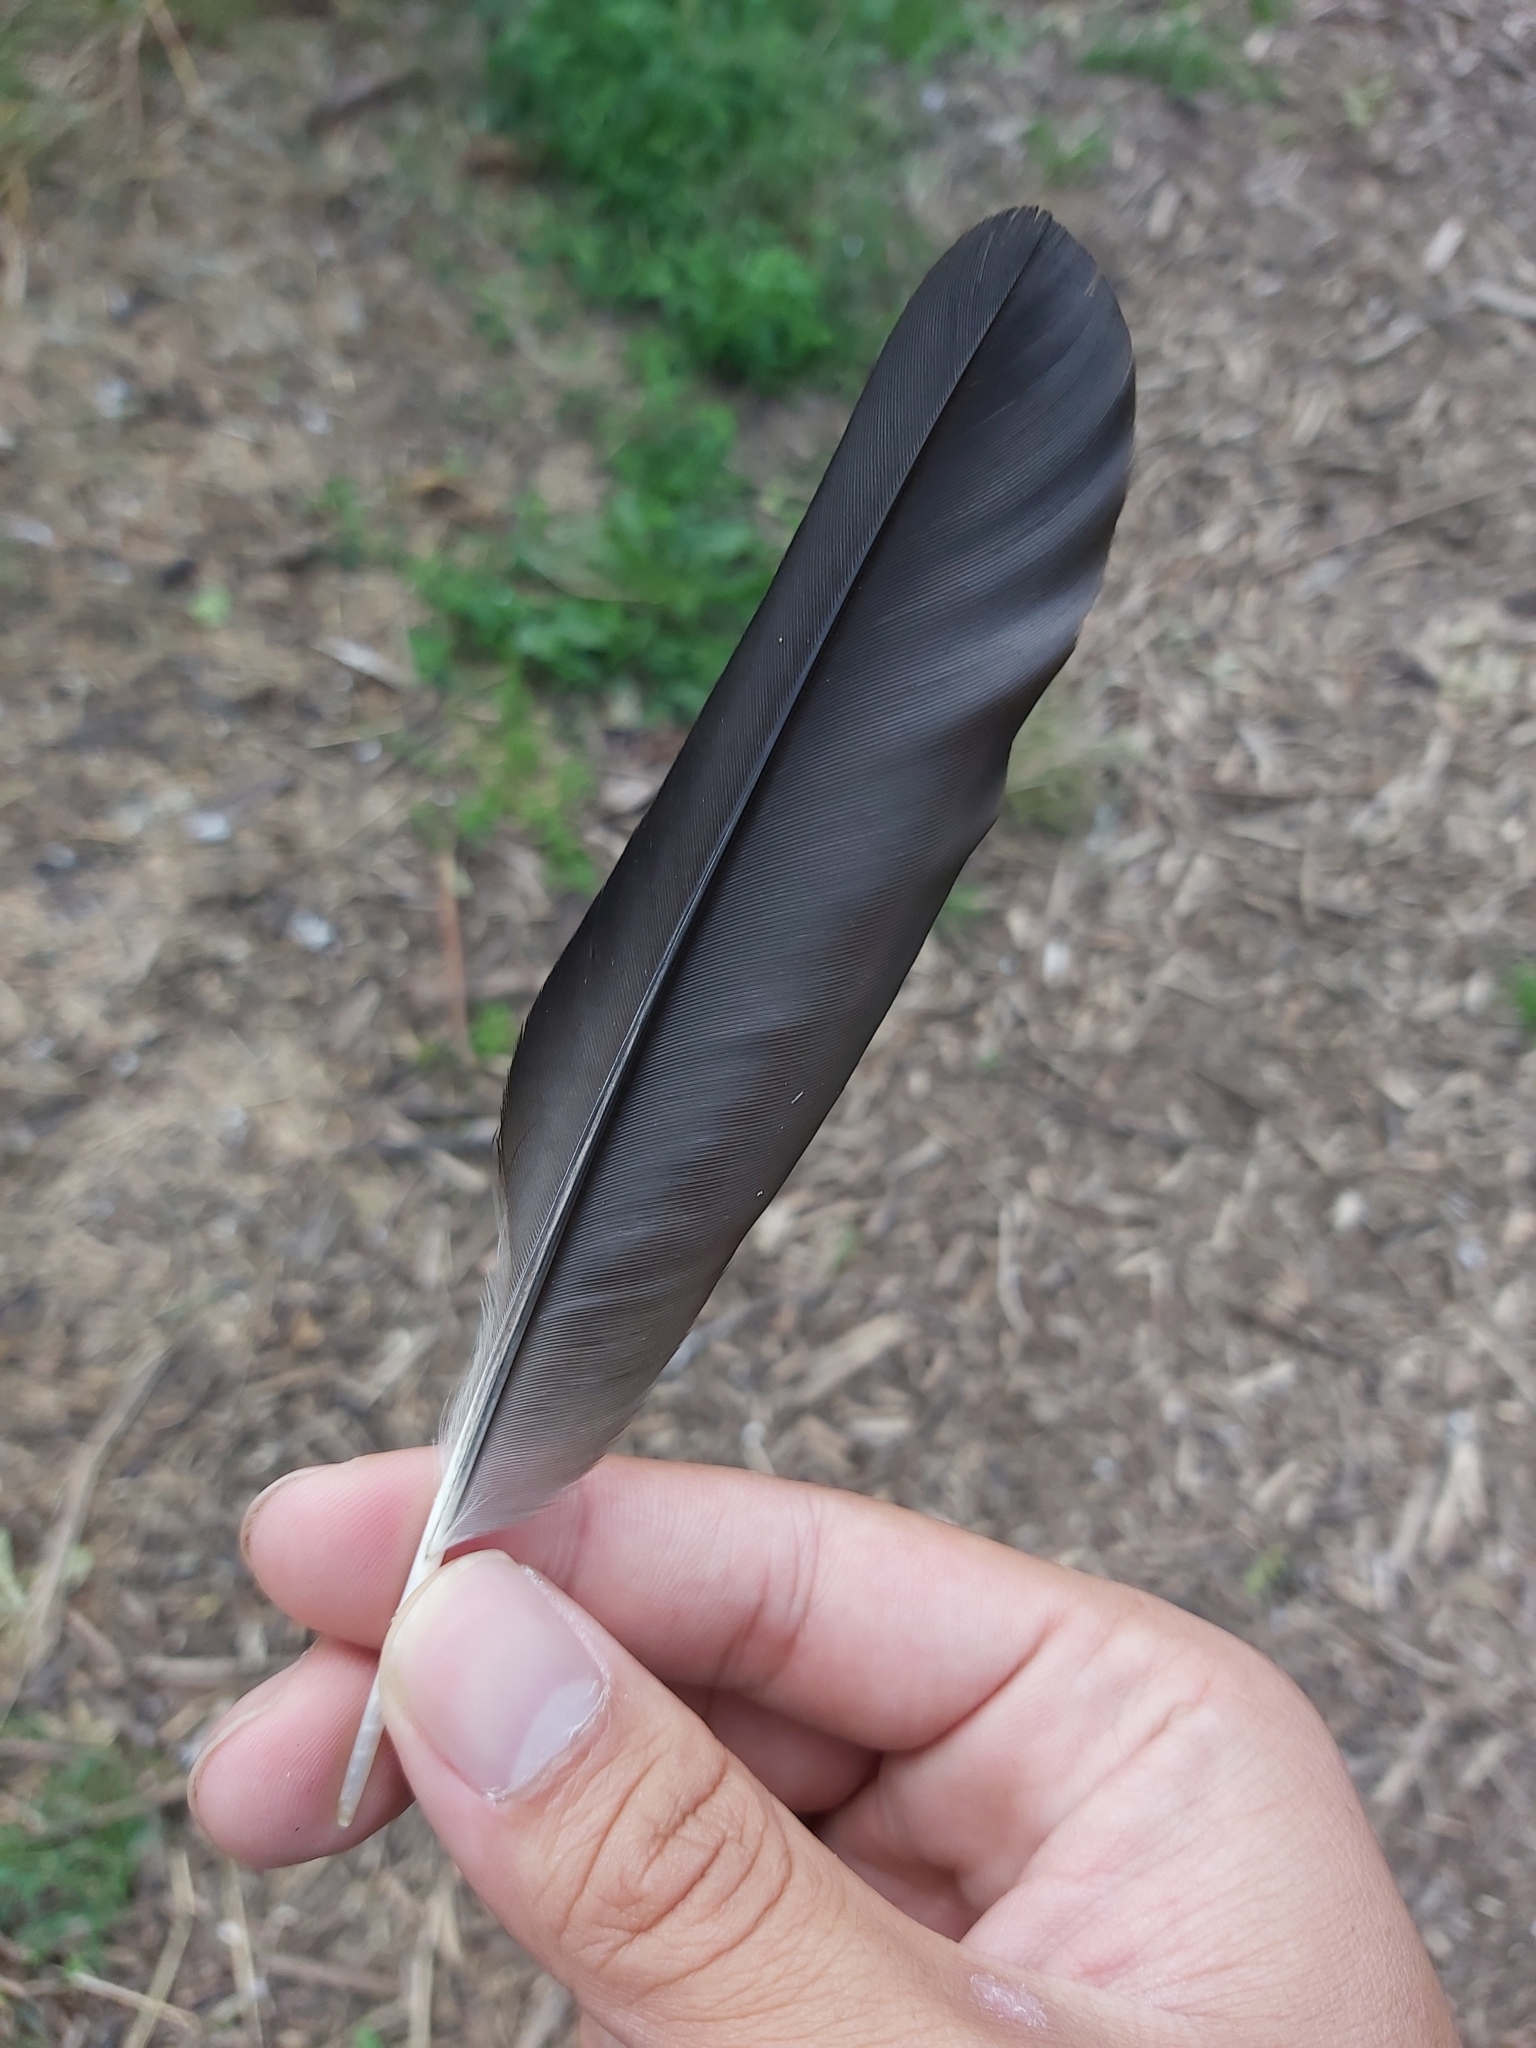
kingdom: Animalia
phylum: Chordata
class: Aves
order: Passeriformes
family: Corvidae
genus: Coloeus
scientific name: Coloeus monedula
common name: Western jackdaw
